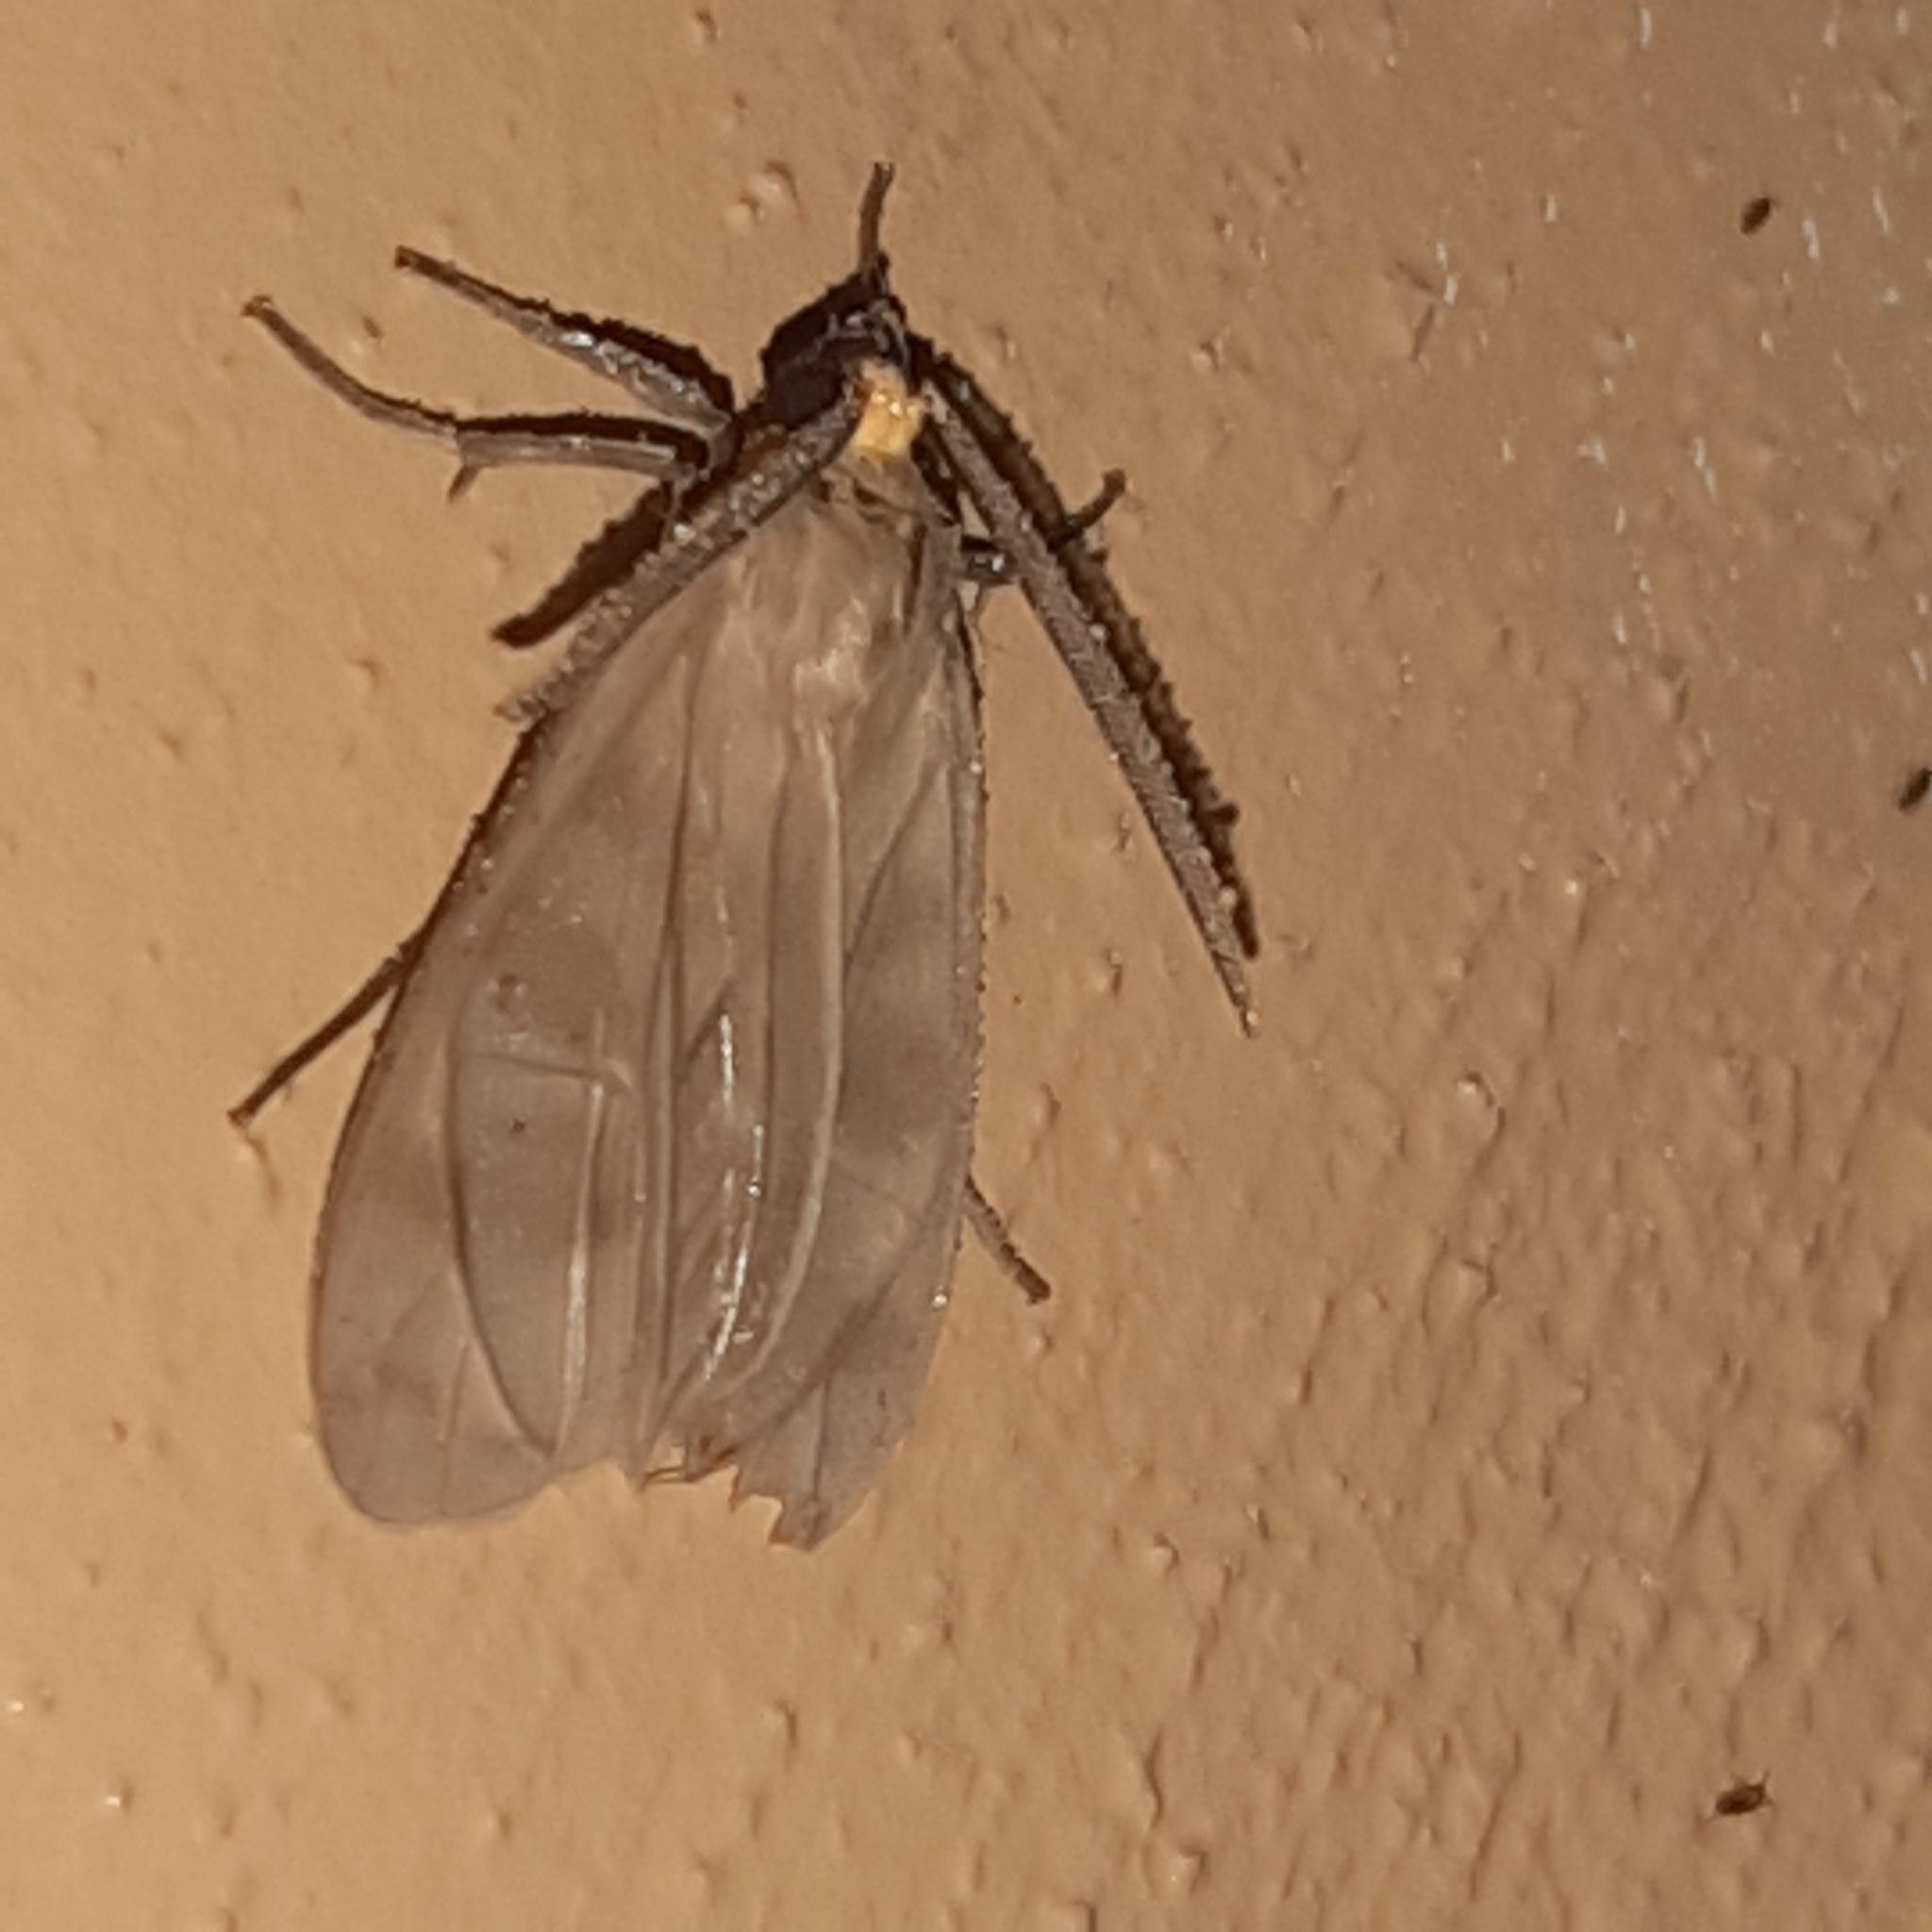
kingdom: Animalia
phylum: Arthropoda
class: Insecta
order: Lepidoptera
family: Erebidae
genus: Tricypha
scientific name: Tricypha imperialis
